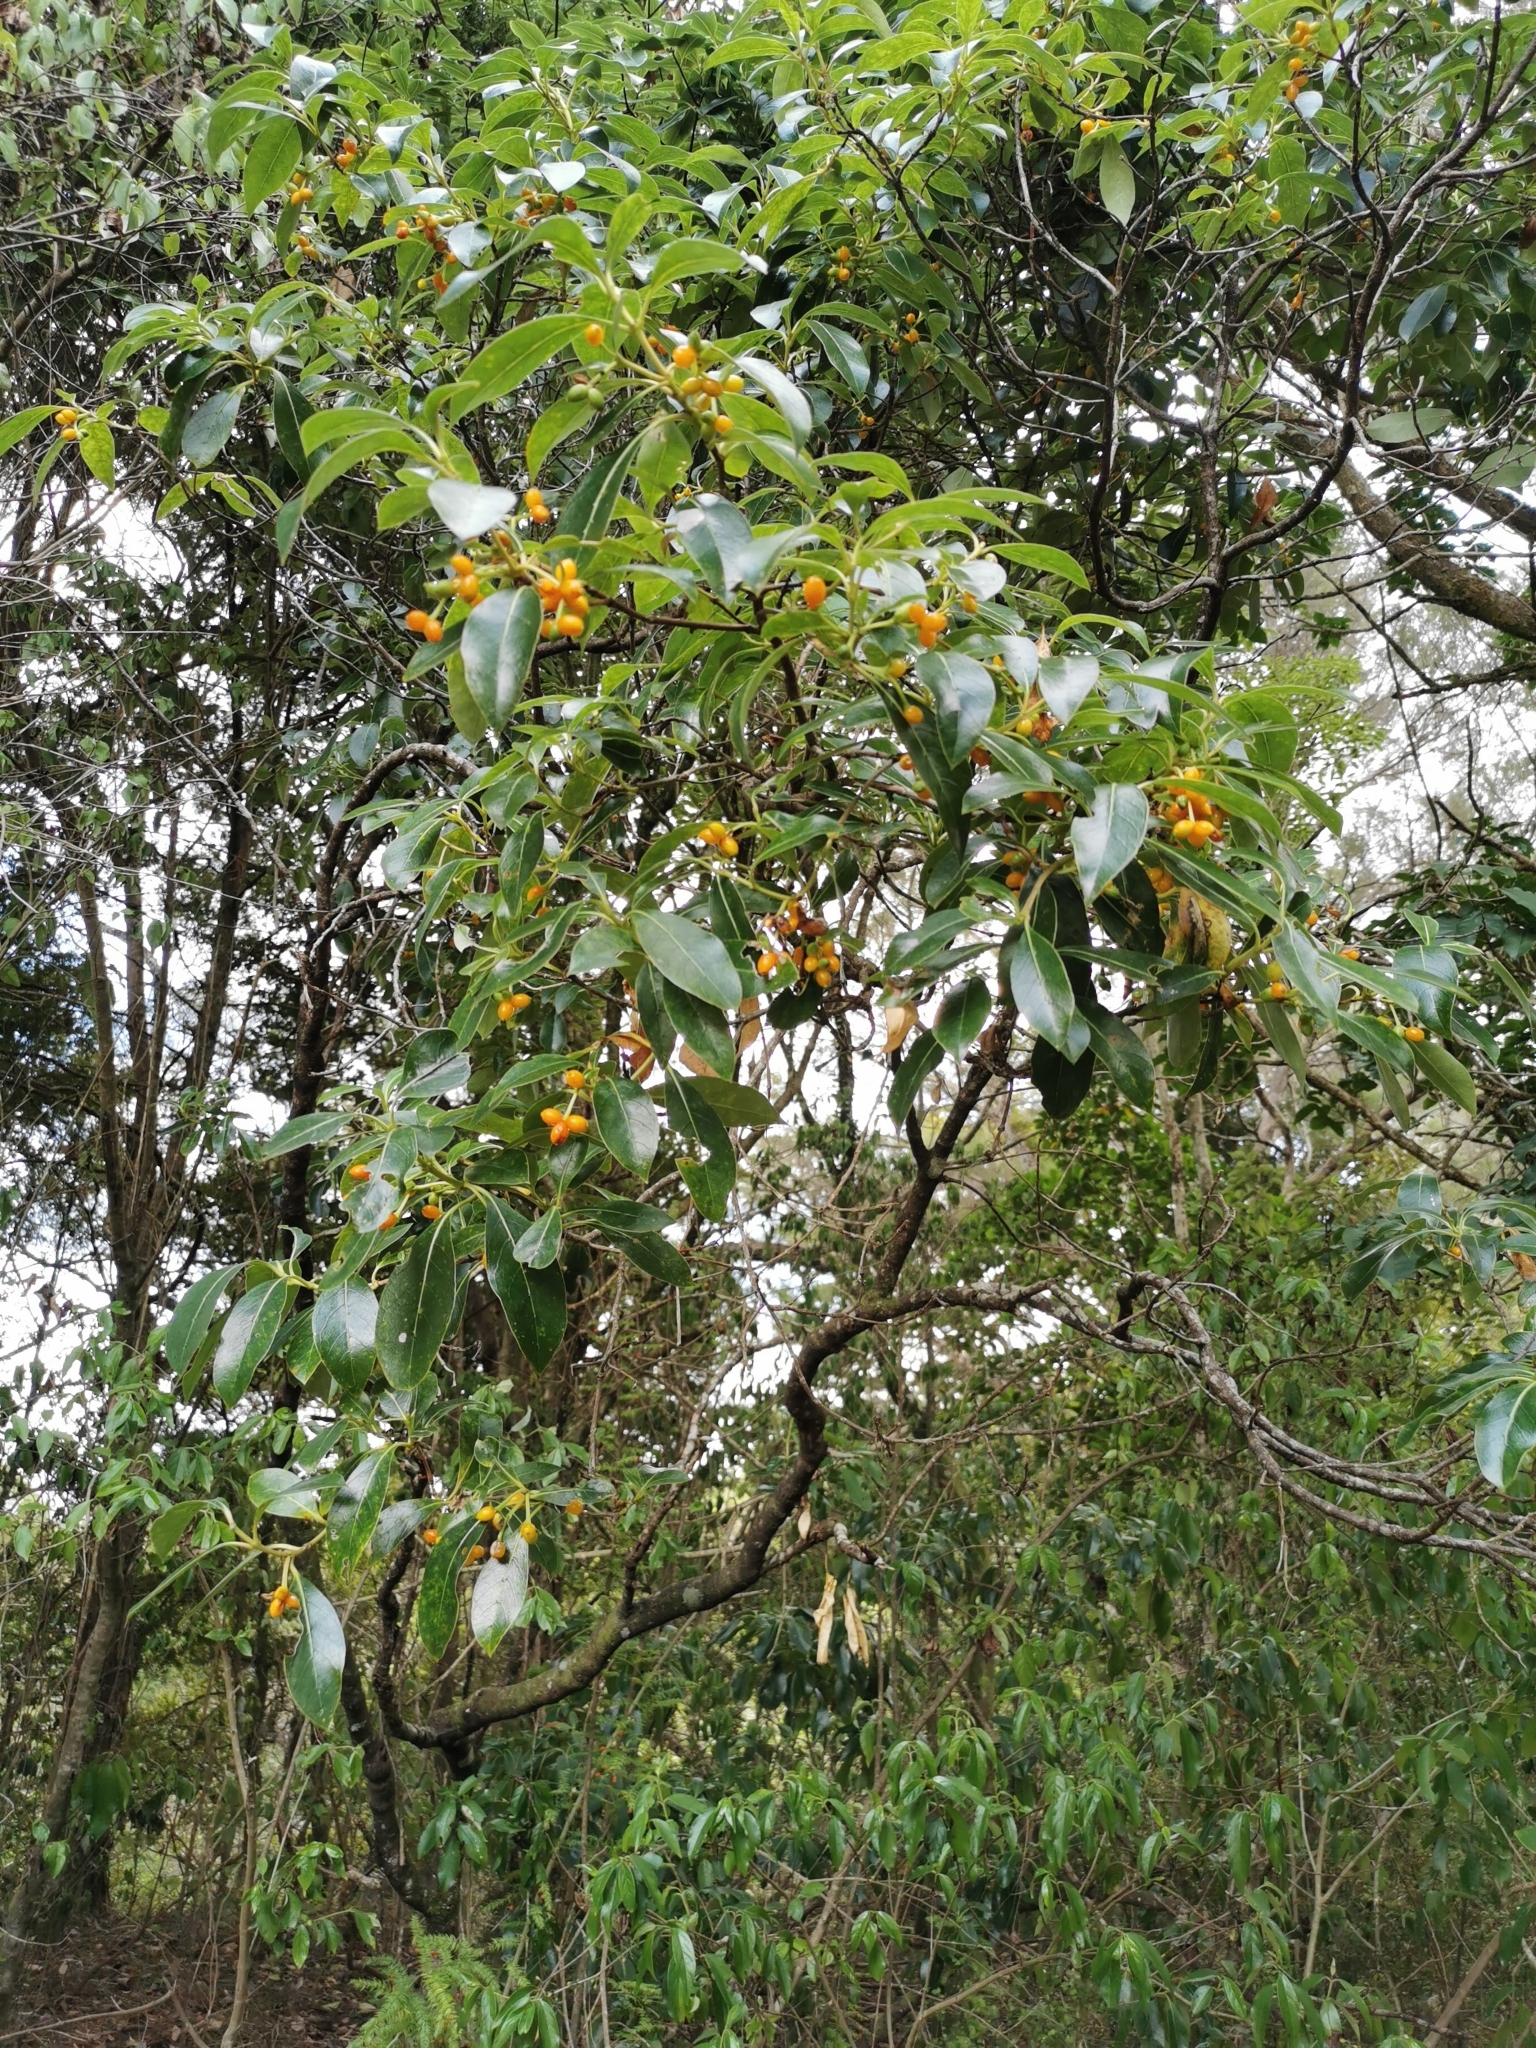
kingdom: Plantae
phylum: Tracheophyta
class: Magnoliopsida
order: Gentianales
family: Rubiaceae
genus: Coprosma
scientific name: Coprosma lucida
